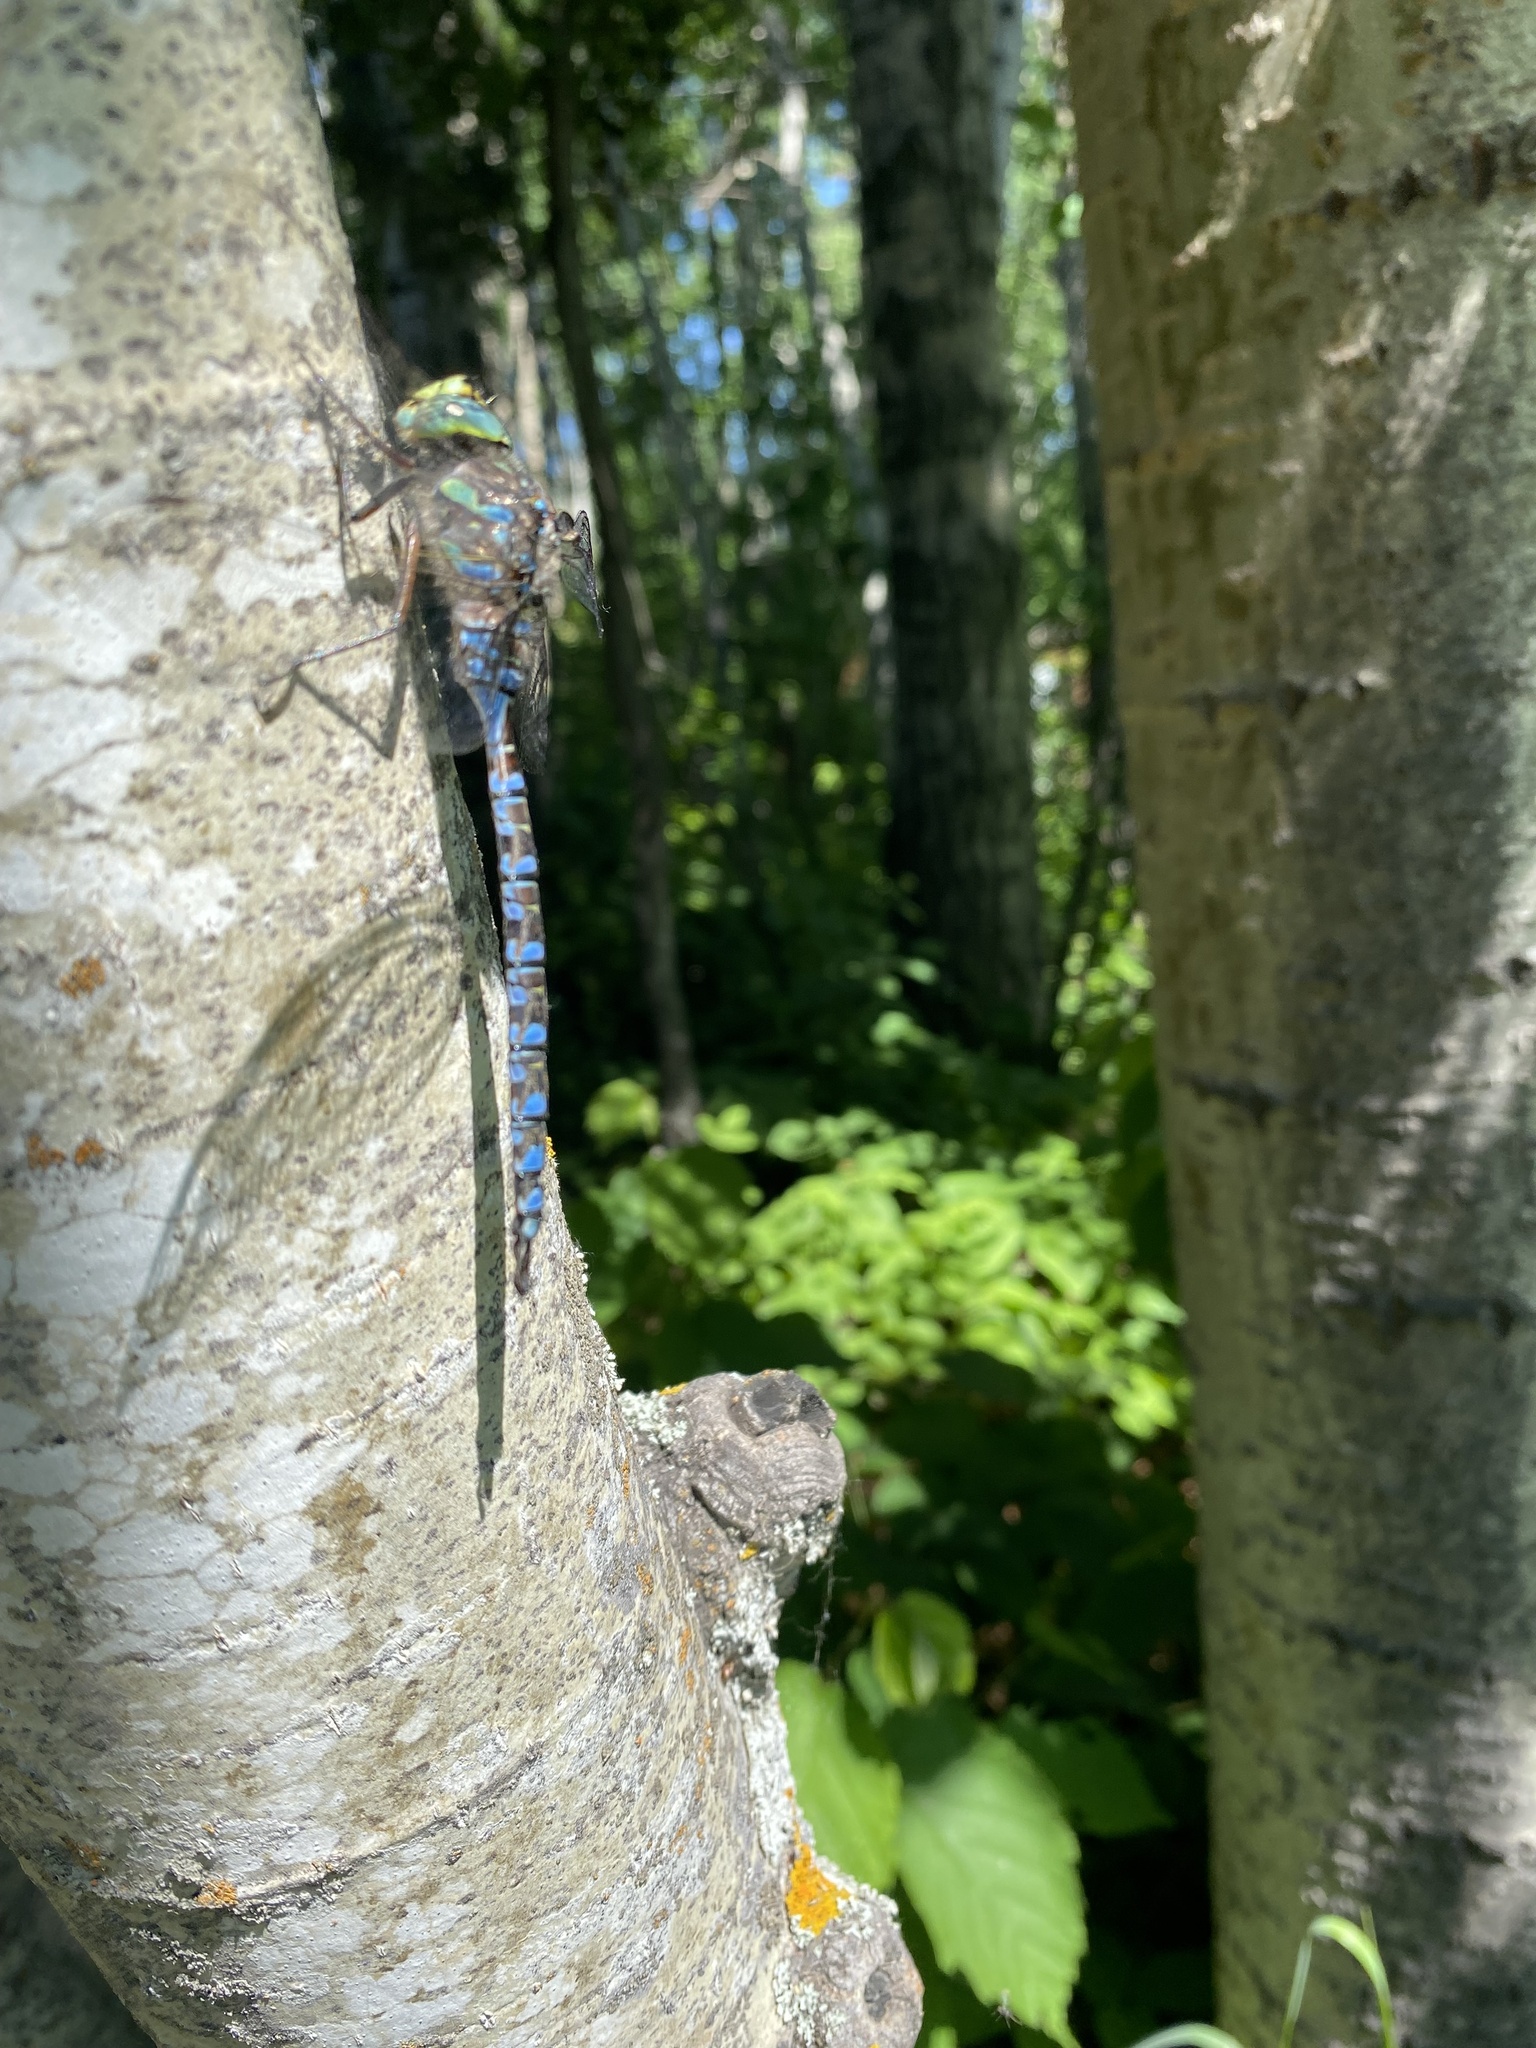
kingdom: Animalia
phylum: Arthropoda
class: Insecta
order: Odonata
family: Aeshnidae
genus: Aeshna
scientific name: Aeshna eremita
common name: Lake darner
